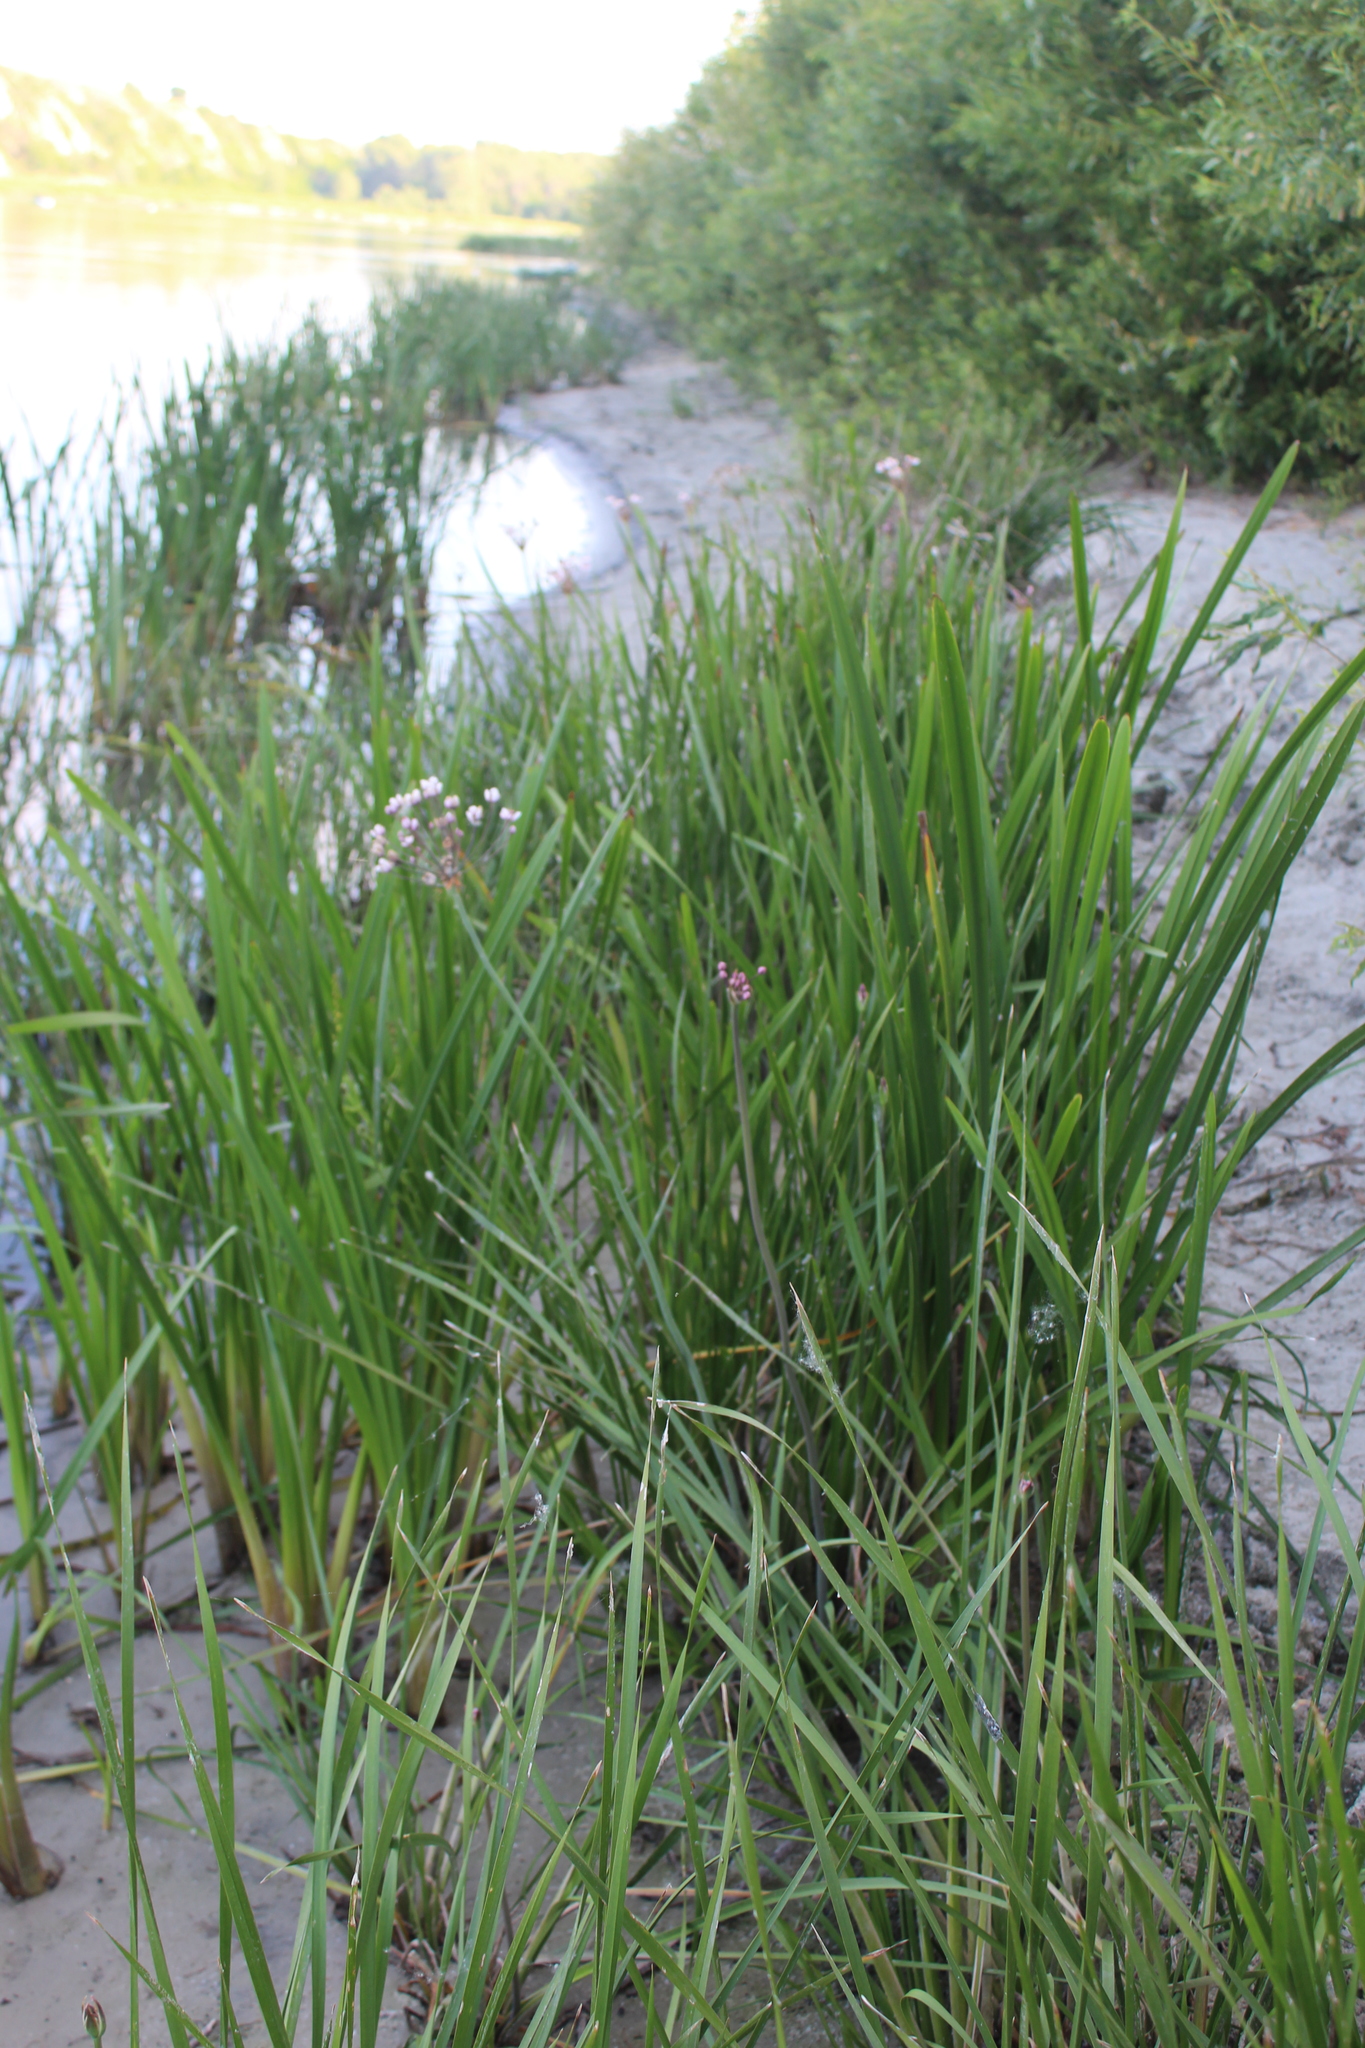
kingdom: Plantae
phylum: Tracheophyta
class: Liliopsida
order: Alismatales
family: Butomaceae
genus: Butomus
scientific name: Butomus umbellatus
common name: Flowering-rush
